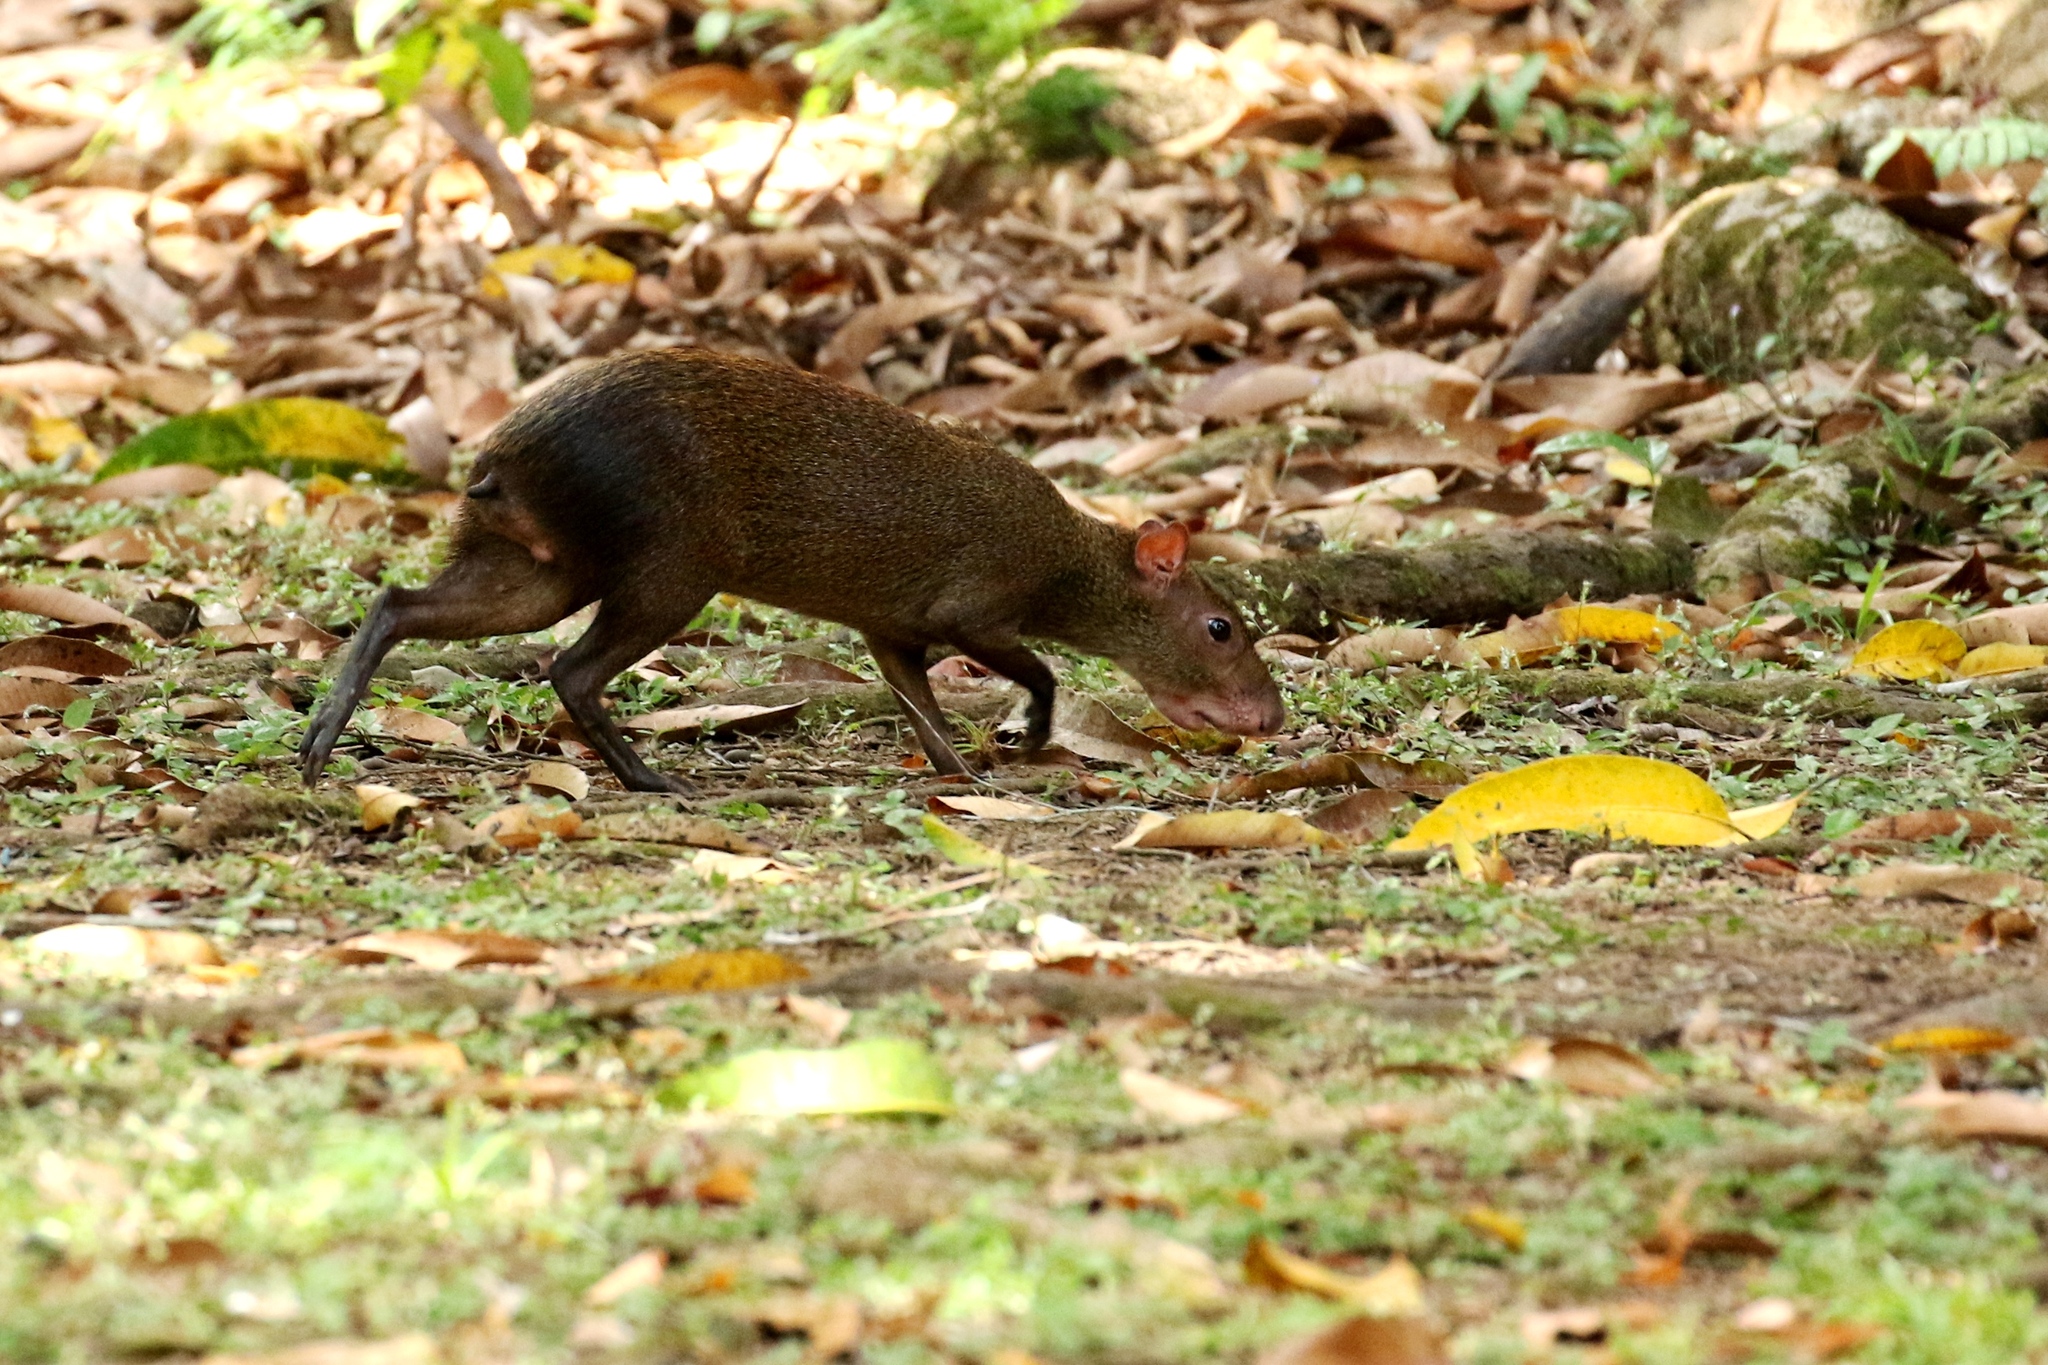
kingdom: Animalia
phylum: Chordata
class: Mammalia
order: Rodentia
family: Dasyproctidae
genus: Dasyprocta
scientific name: Dasyprocta punctata
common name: Central american agouti
